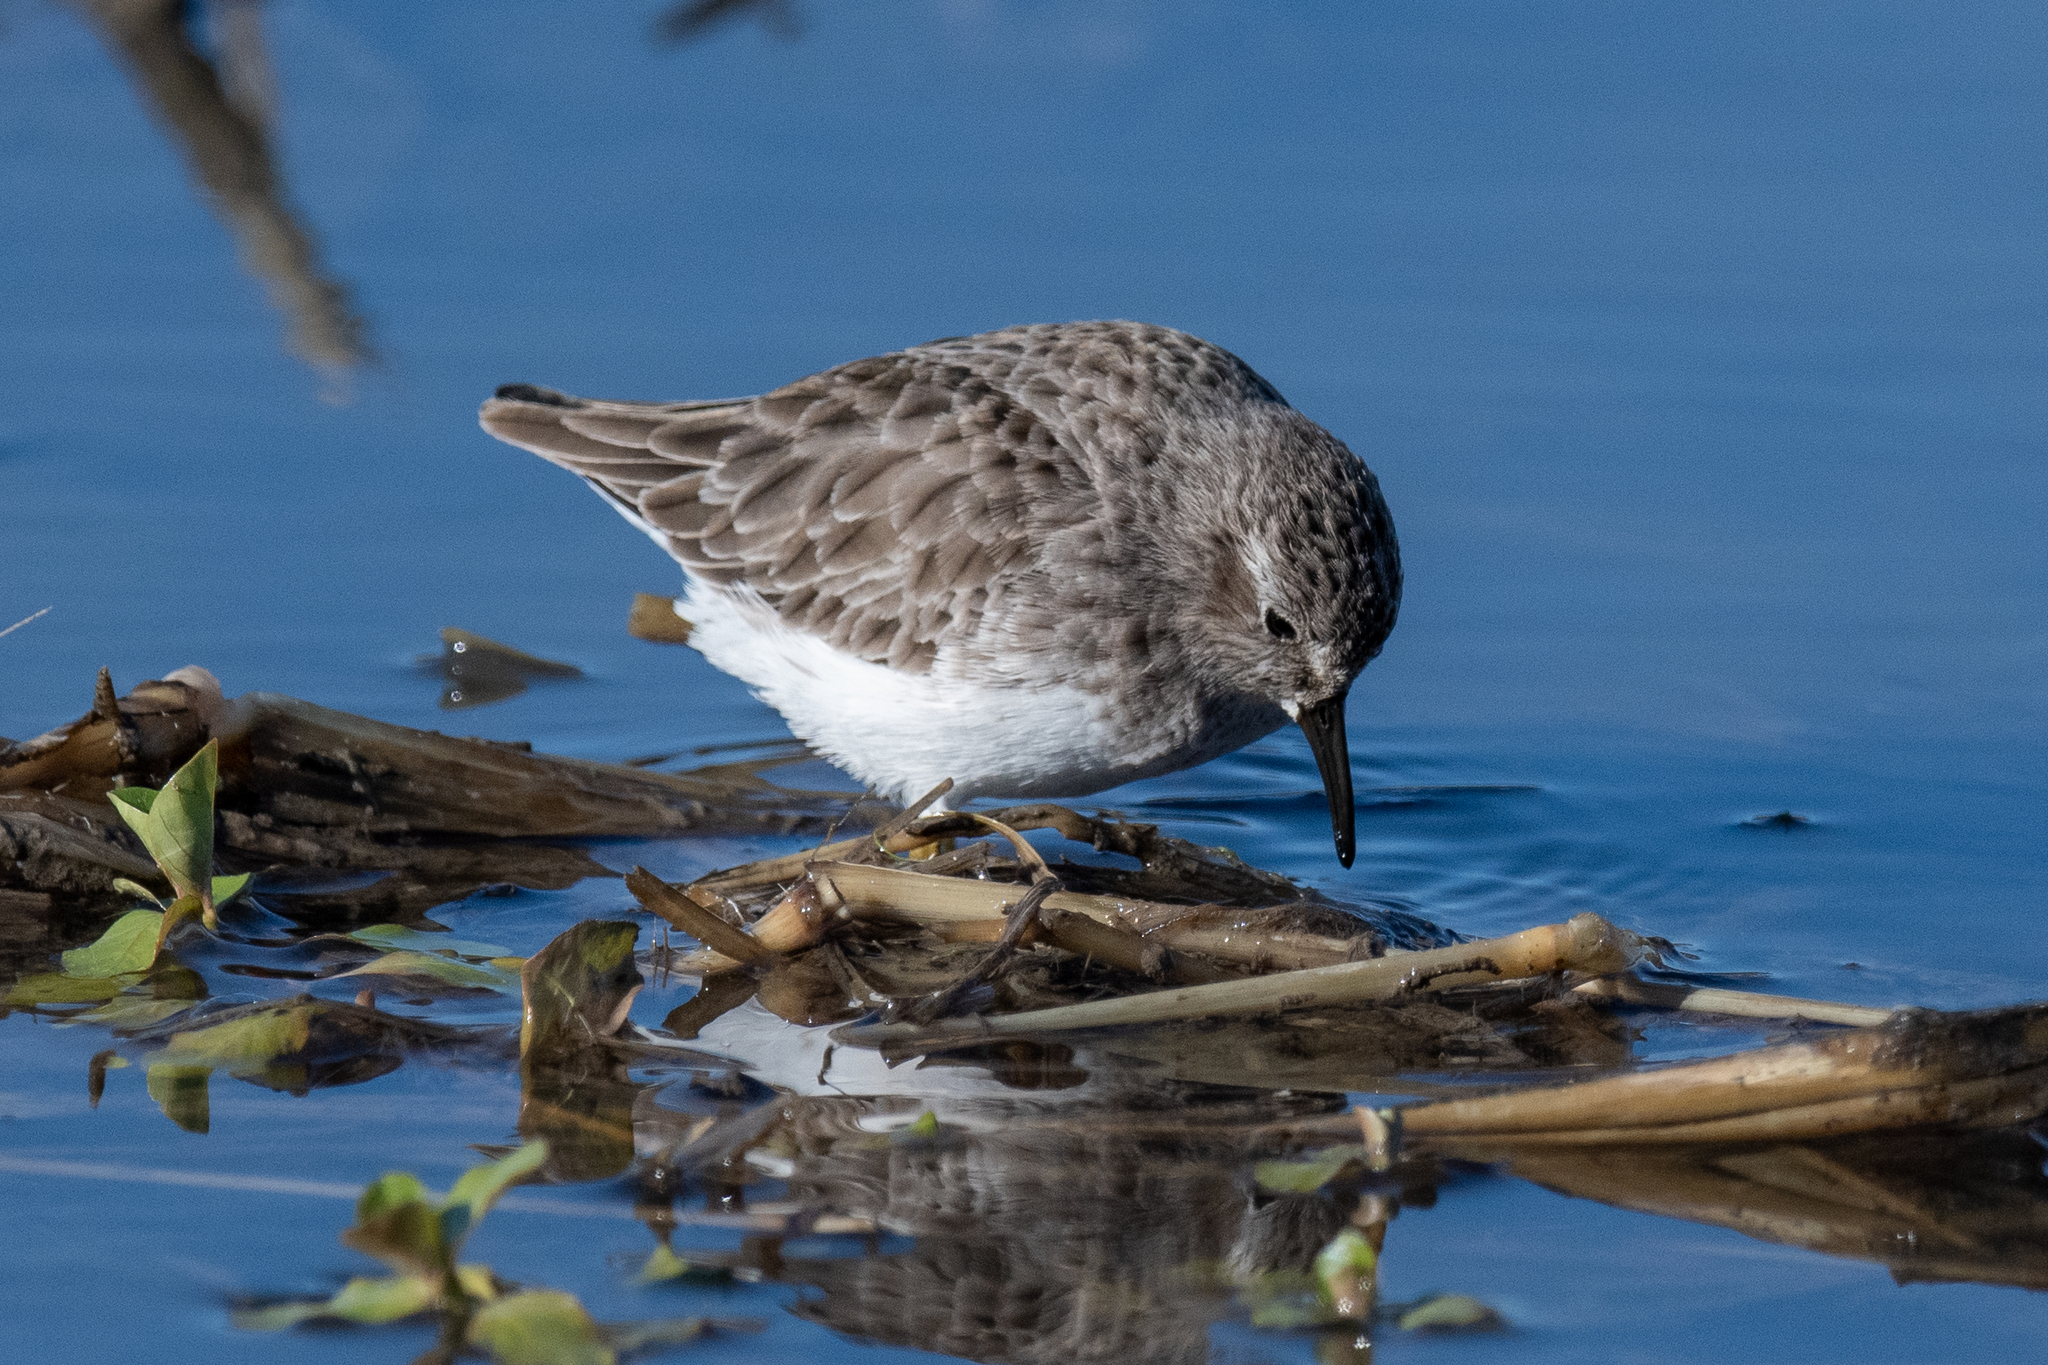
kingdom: Animalia
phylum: Chordata
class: Aves
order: Charadriiformes
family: Scolopacidae
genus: Calidris
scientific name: Calidris minutilla
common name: Least sandpiper
